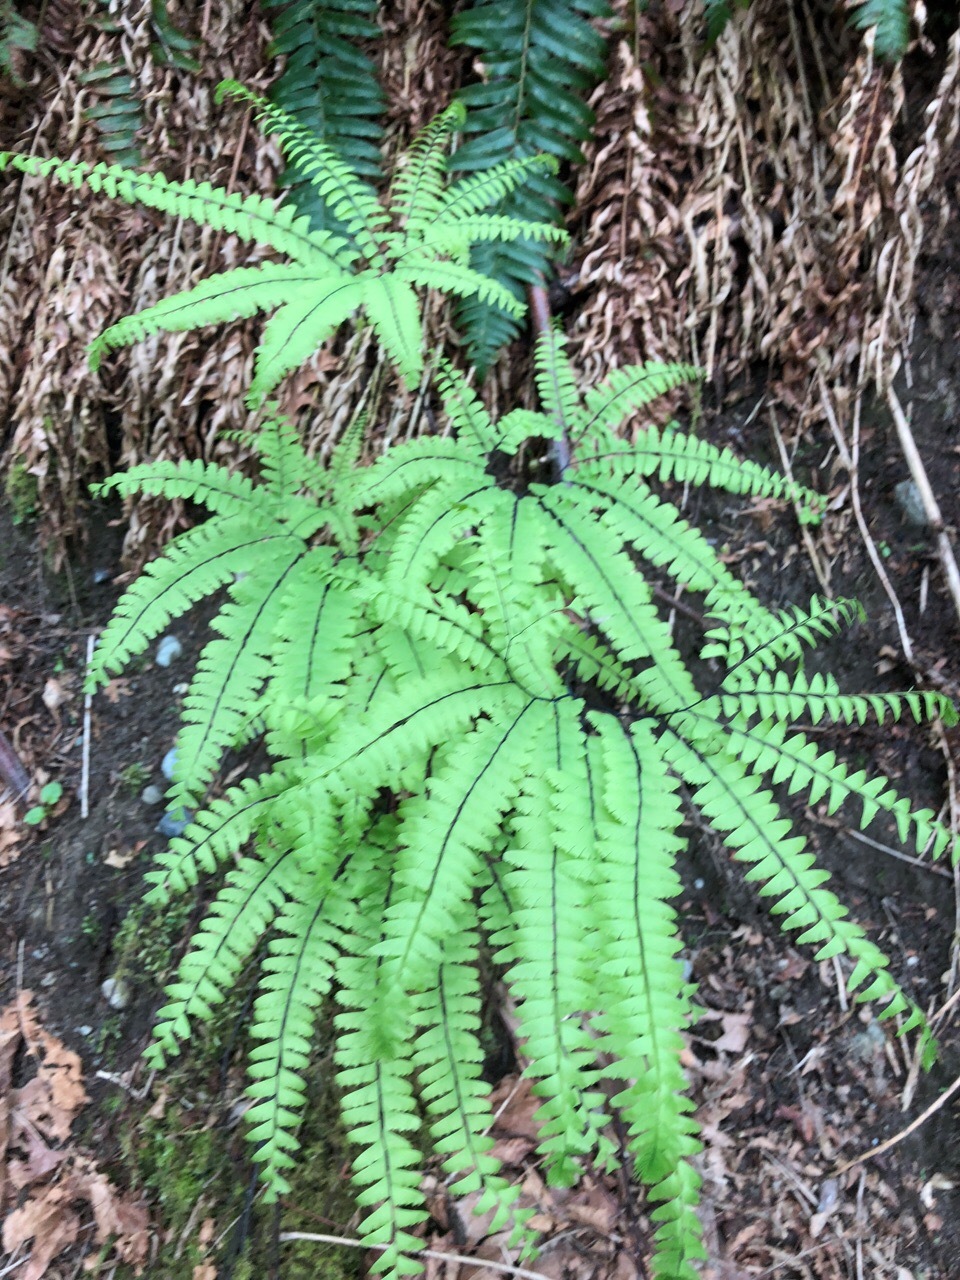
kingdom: Plantae
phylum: Tracheophyta
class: Polypodiopsida
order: Polypodiales
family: Pteridaceae
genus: Adiantum
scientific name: Adiantum aleuticum
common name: Aleutian maidenhair fern
